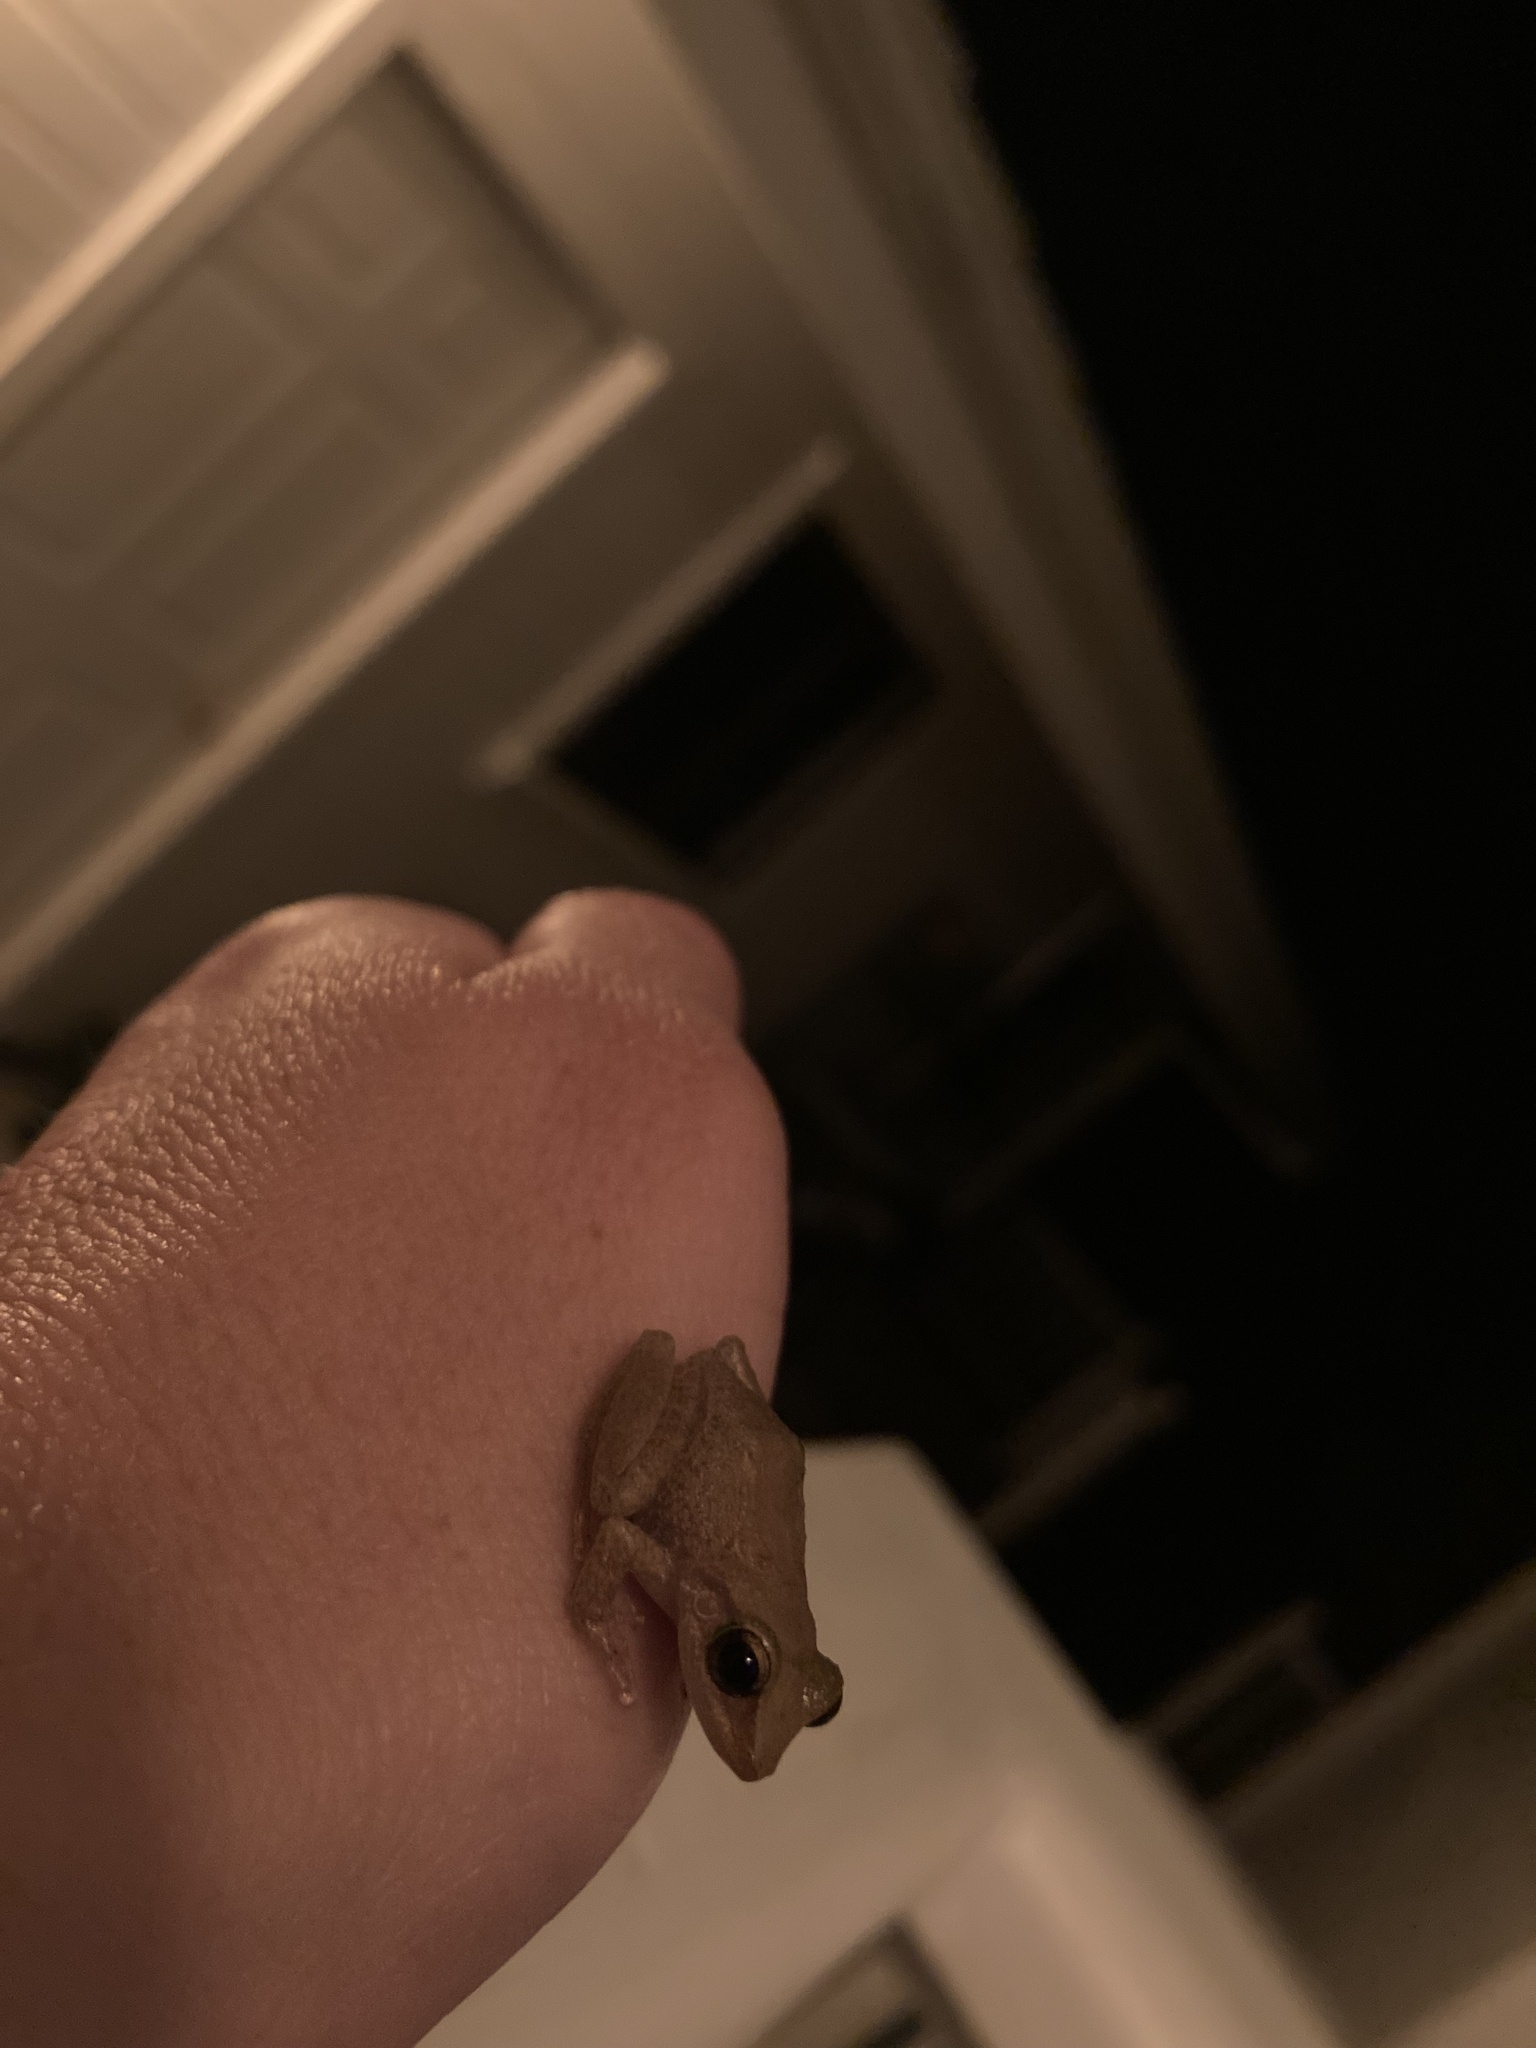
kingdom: Animalia
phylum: Chordata
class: Amphibia
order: Anura
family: Eleutherodactylidae
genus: Eleutherodactylus
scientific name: Eleutherodactylus coqui
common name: Coqui frog
